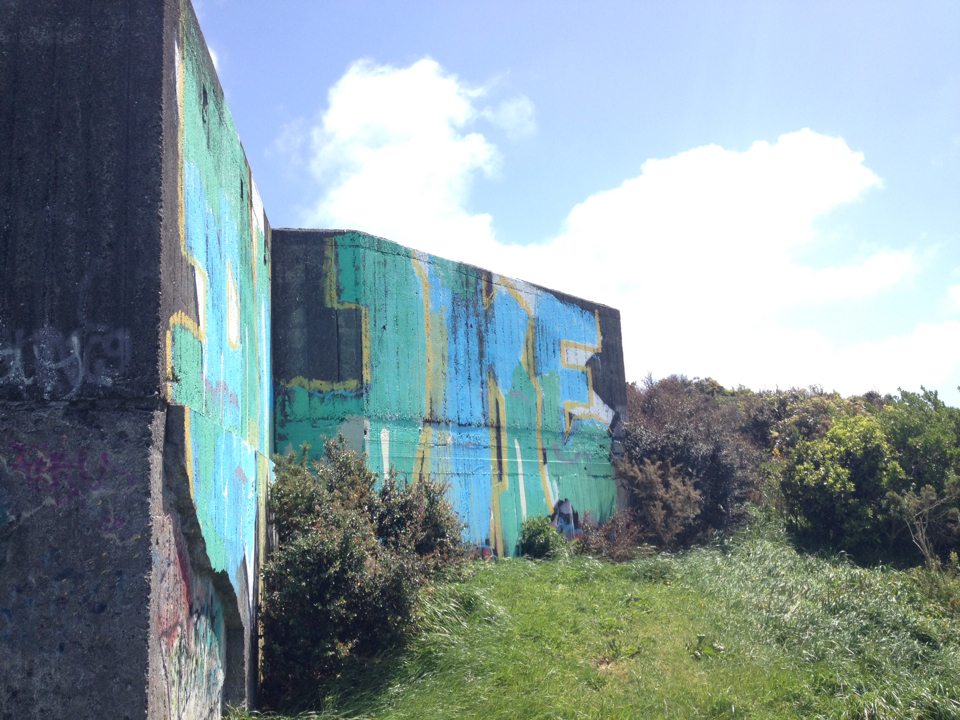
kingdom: Plantae
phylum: Tracheophyta
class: Magnoliopsida
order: Ranunculales
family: Berberidaceae
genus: Berberis
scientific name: Berberis darwinii
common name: Darwin's barberry
